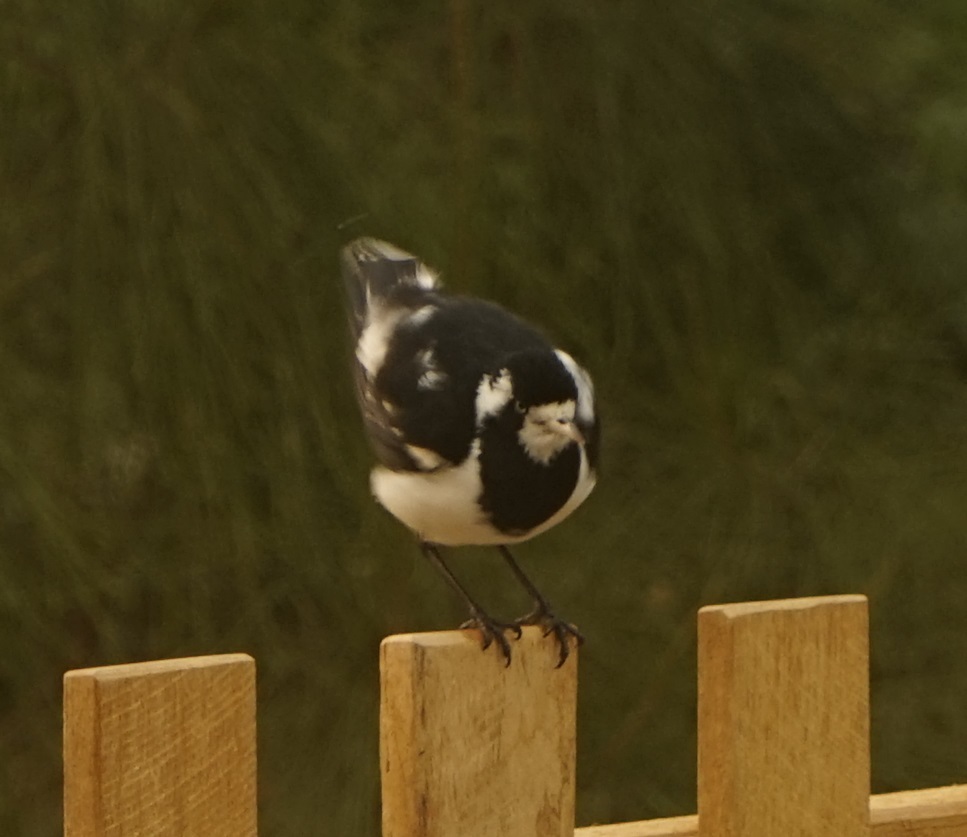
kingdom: Animalia
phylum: Chordata
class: Aves
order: Passeriformes
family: Monarchidae
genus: Grallina
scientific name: Grallina cyanoleuca
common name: Magpie-lark
